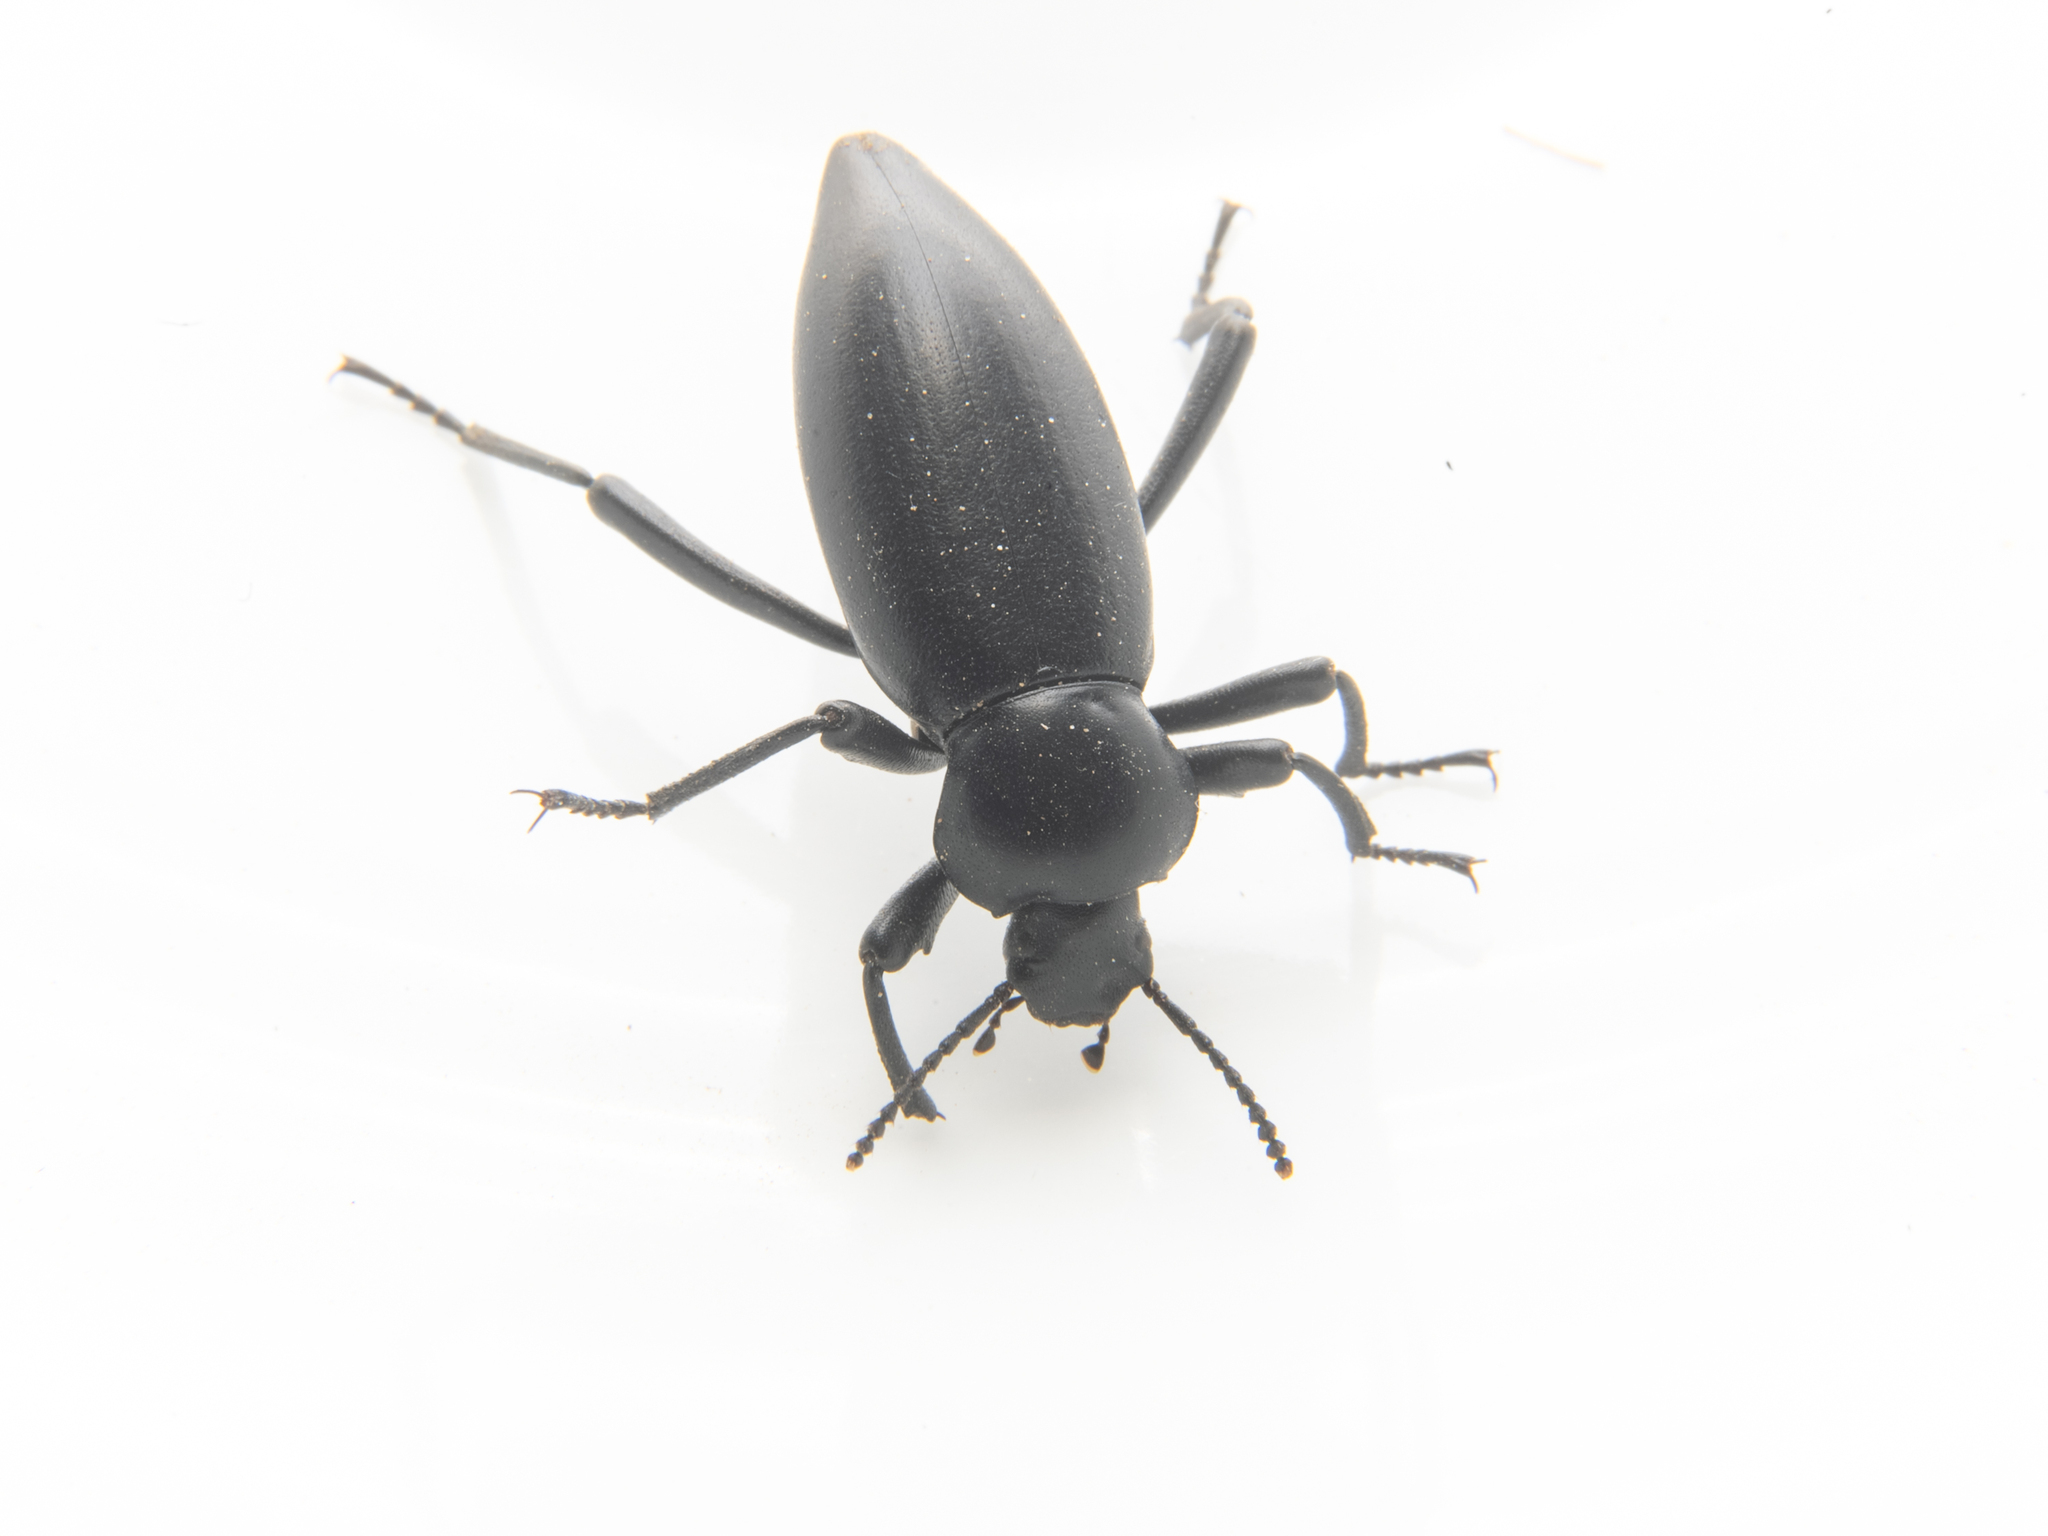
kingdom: Animalia
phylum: Arthropoda
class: Insecta
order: Coleoptera
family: Tenebrionidae
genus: Eleodes
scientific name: Eleodes dentipes
